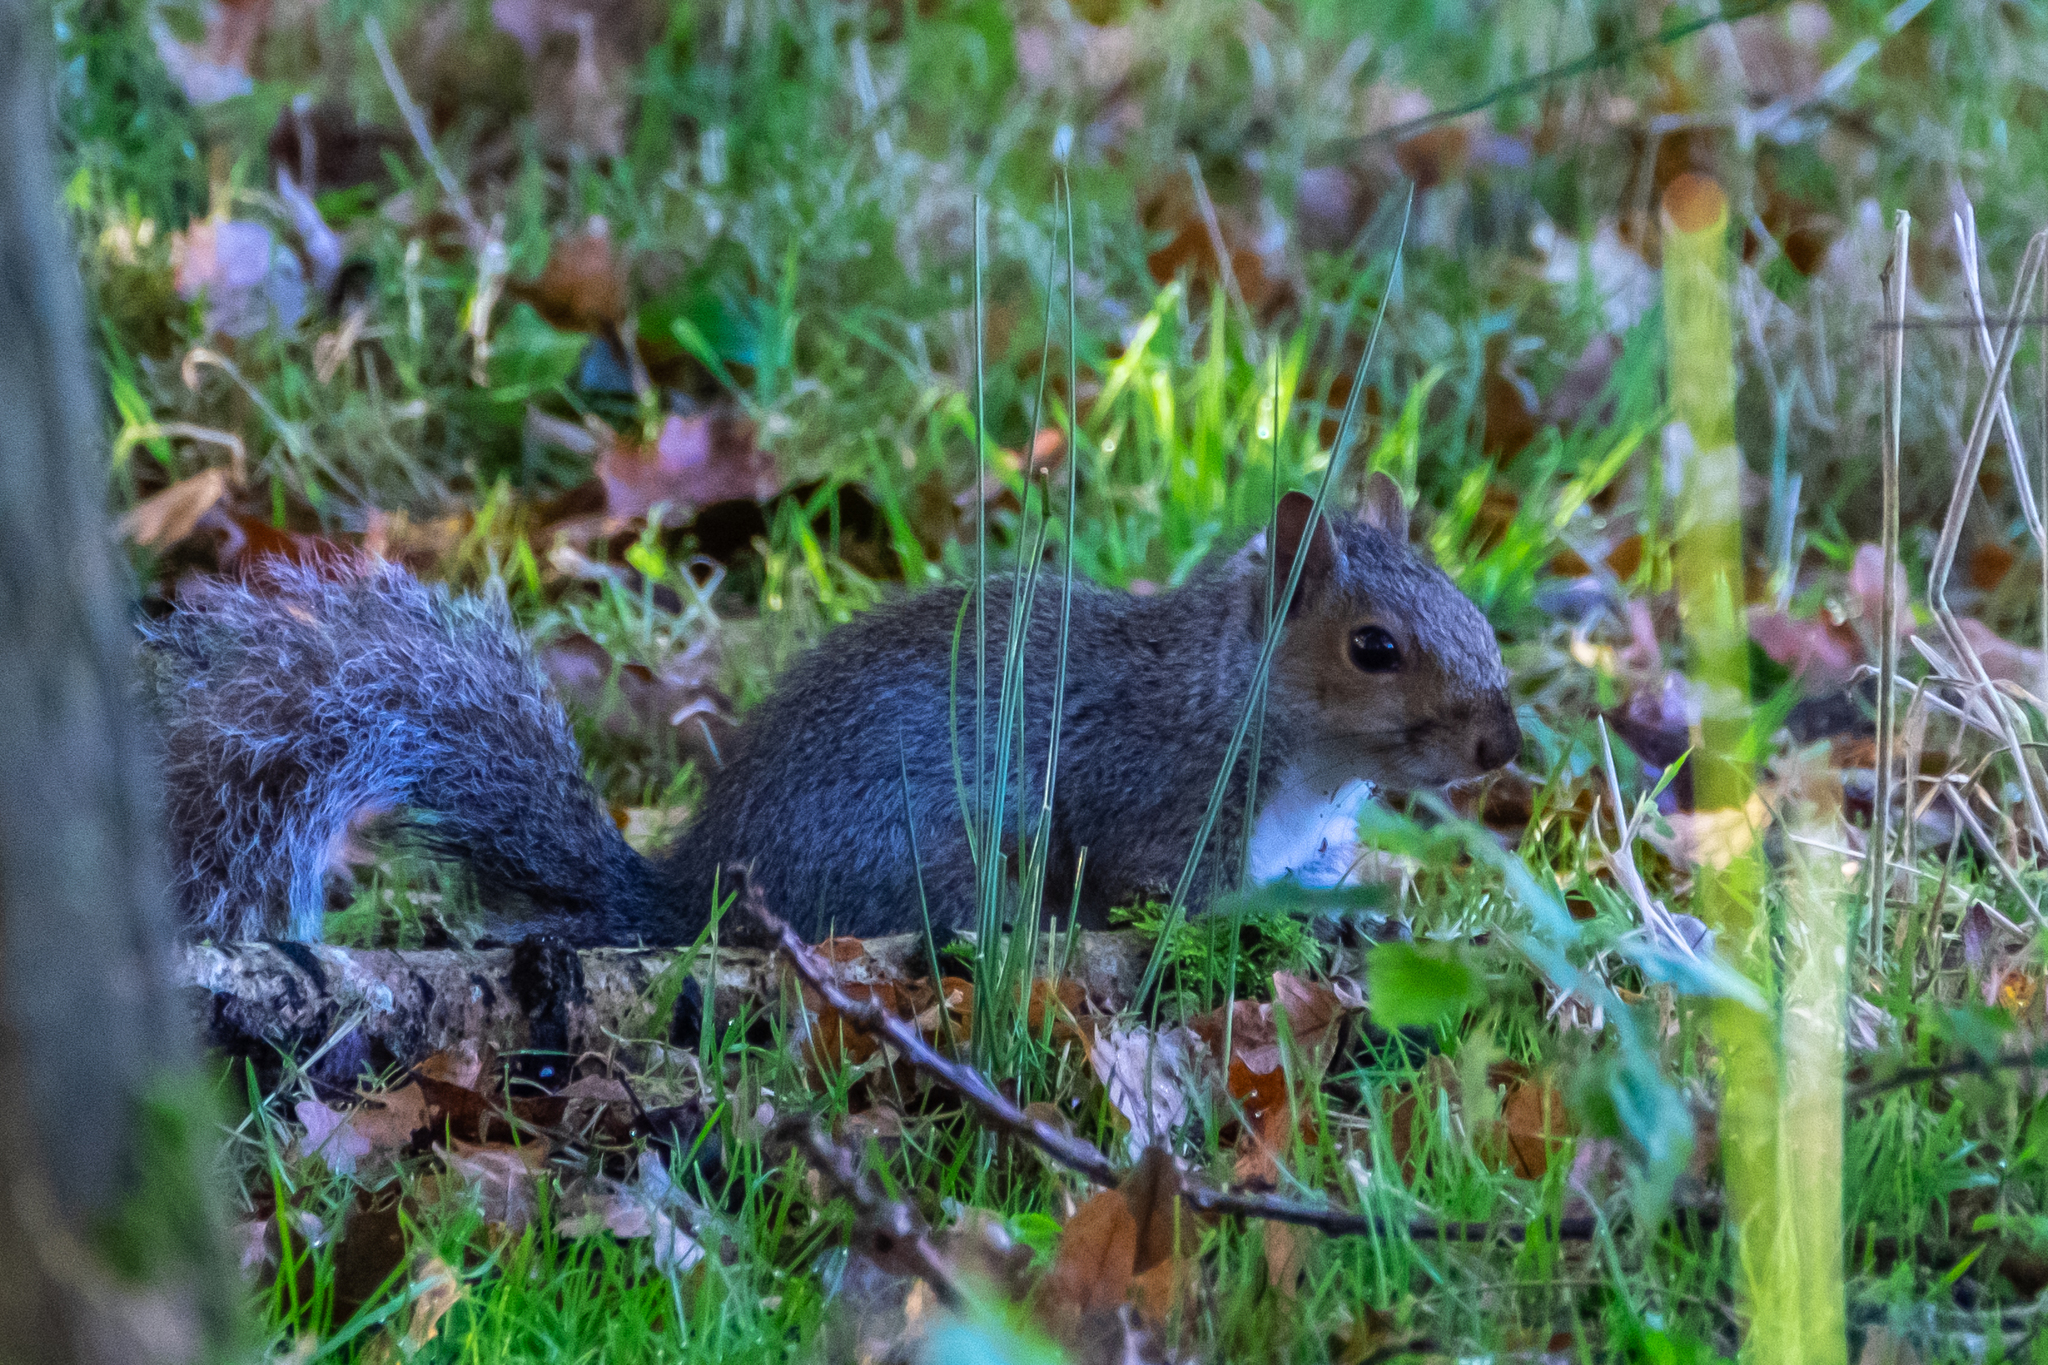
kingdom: Animalia
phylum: Chordata
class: Mammalia
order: Rodentia
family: Sciuridae
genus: Sciurus
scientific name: Sciurus carolinensis
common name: Eastern gray squirrel
